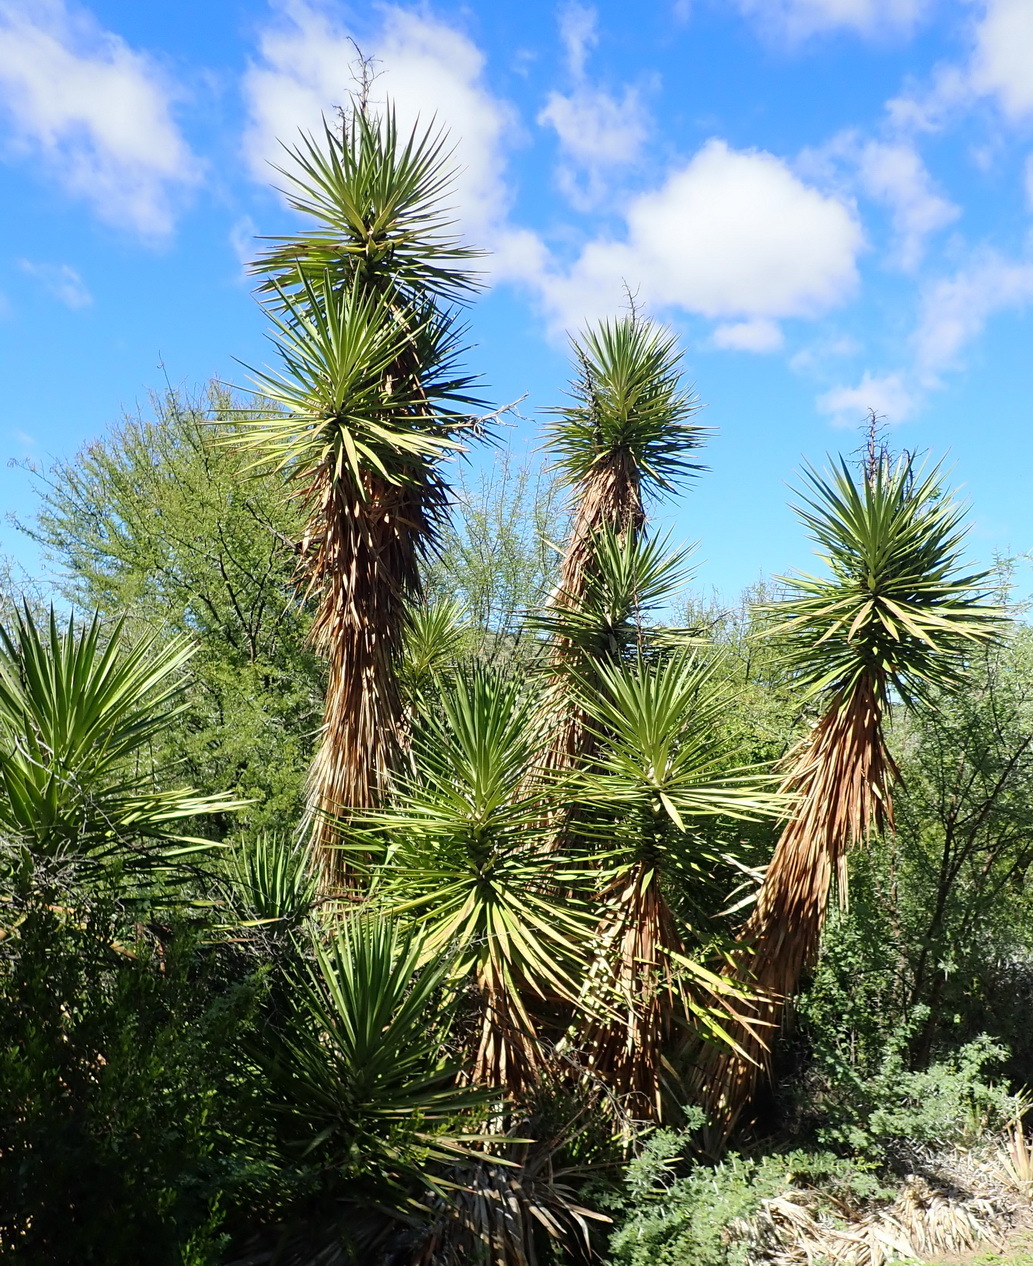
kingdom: Plantae
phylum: Tracheophyta
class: Liliopsida
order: Asparagales
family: Asparagaceae
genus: Yucca
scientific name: Yucca aloifolia
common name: Aloe yucca
